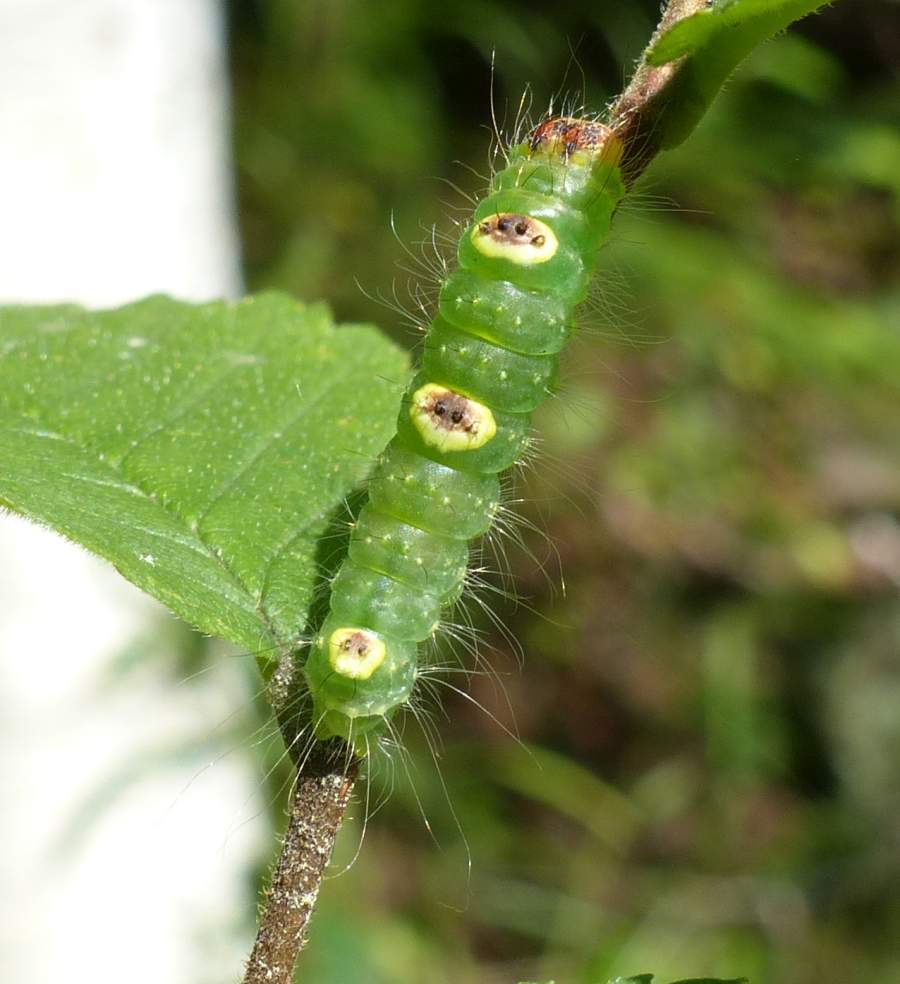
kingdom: Animalia
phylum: Arthropoda
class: Insecta
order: Lepidoptera
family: Noctuidae
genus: Acronicta
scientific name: Acronicta morula
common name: Ochre dagger
